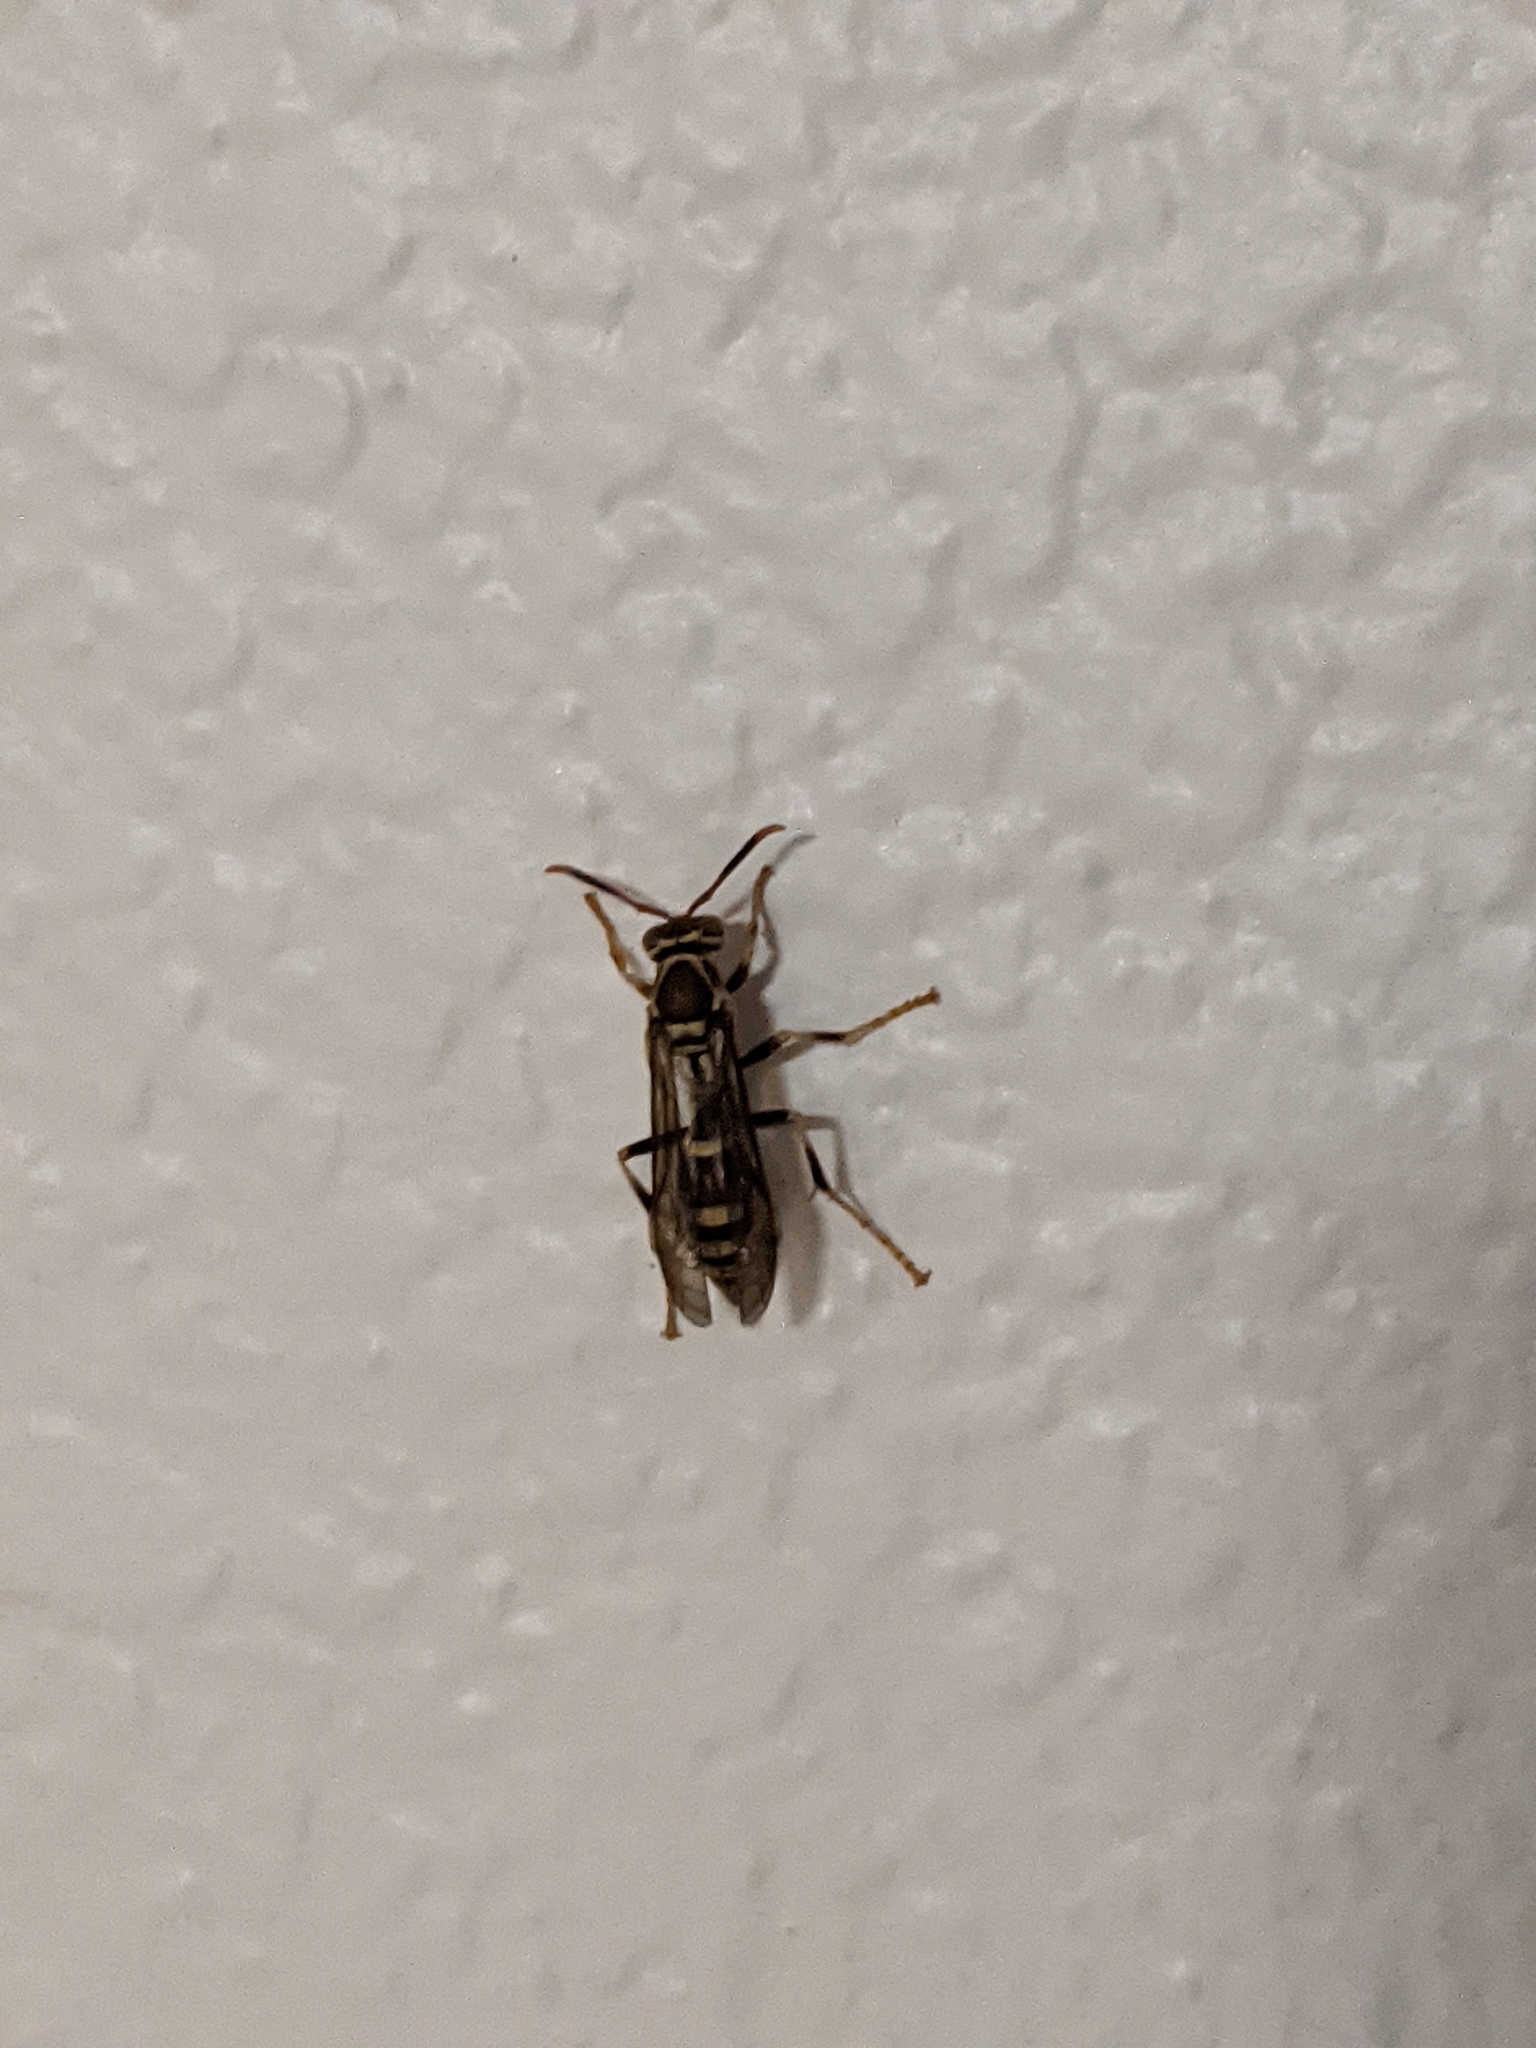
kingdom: Animalia
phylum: Arthropoda
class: Insecta
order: Hymenoptera
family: Eumenidae
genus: Polistes
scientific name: Polistes exclamans
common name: Paper wasp
